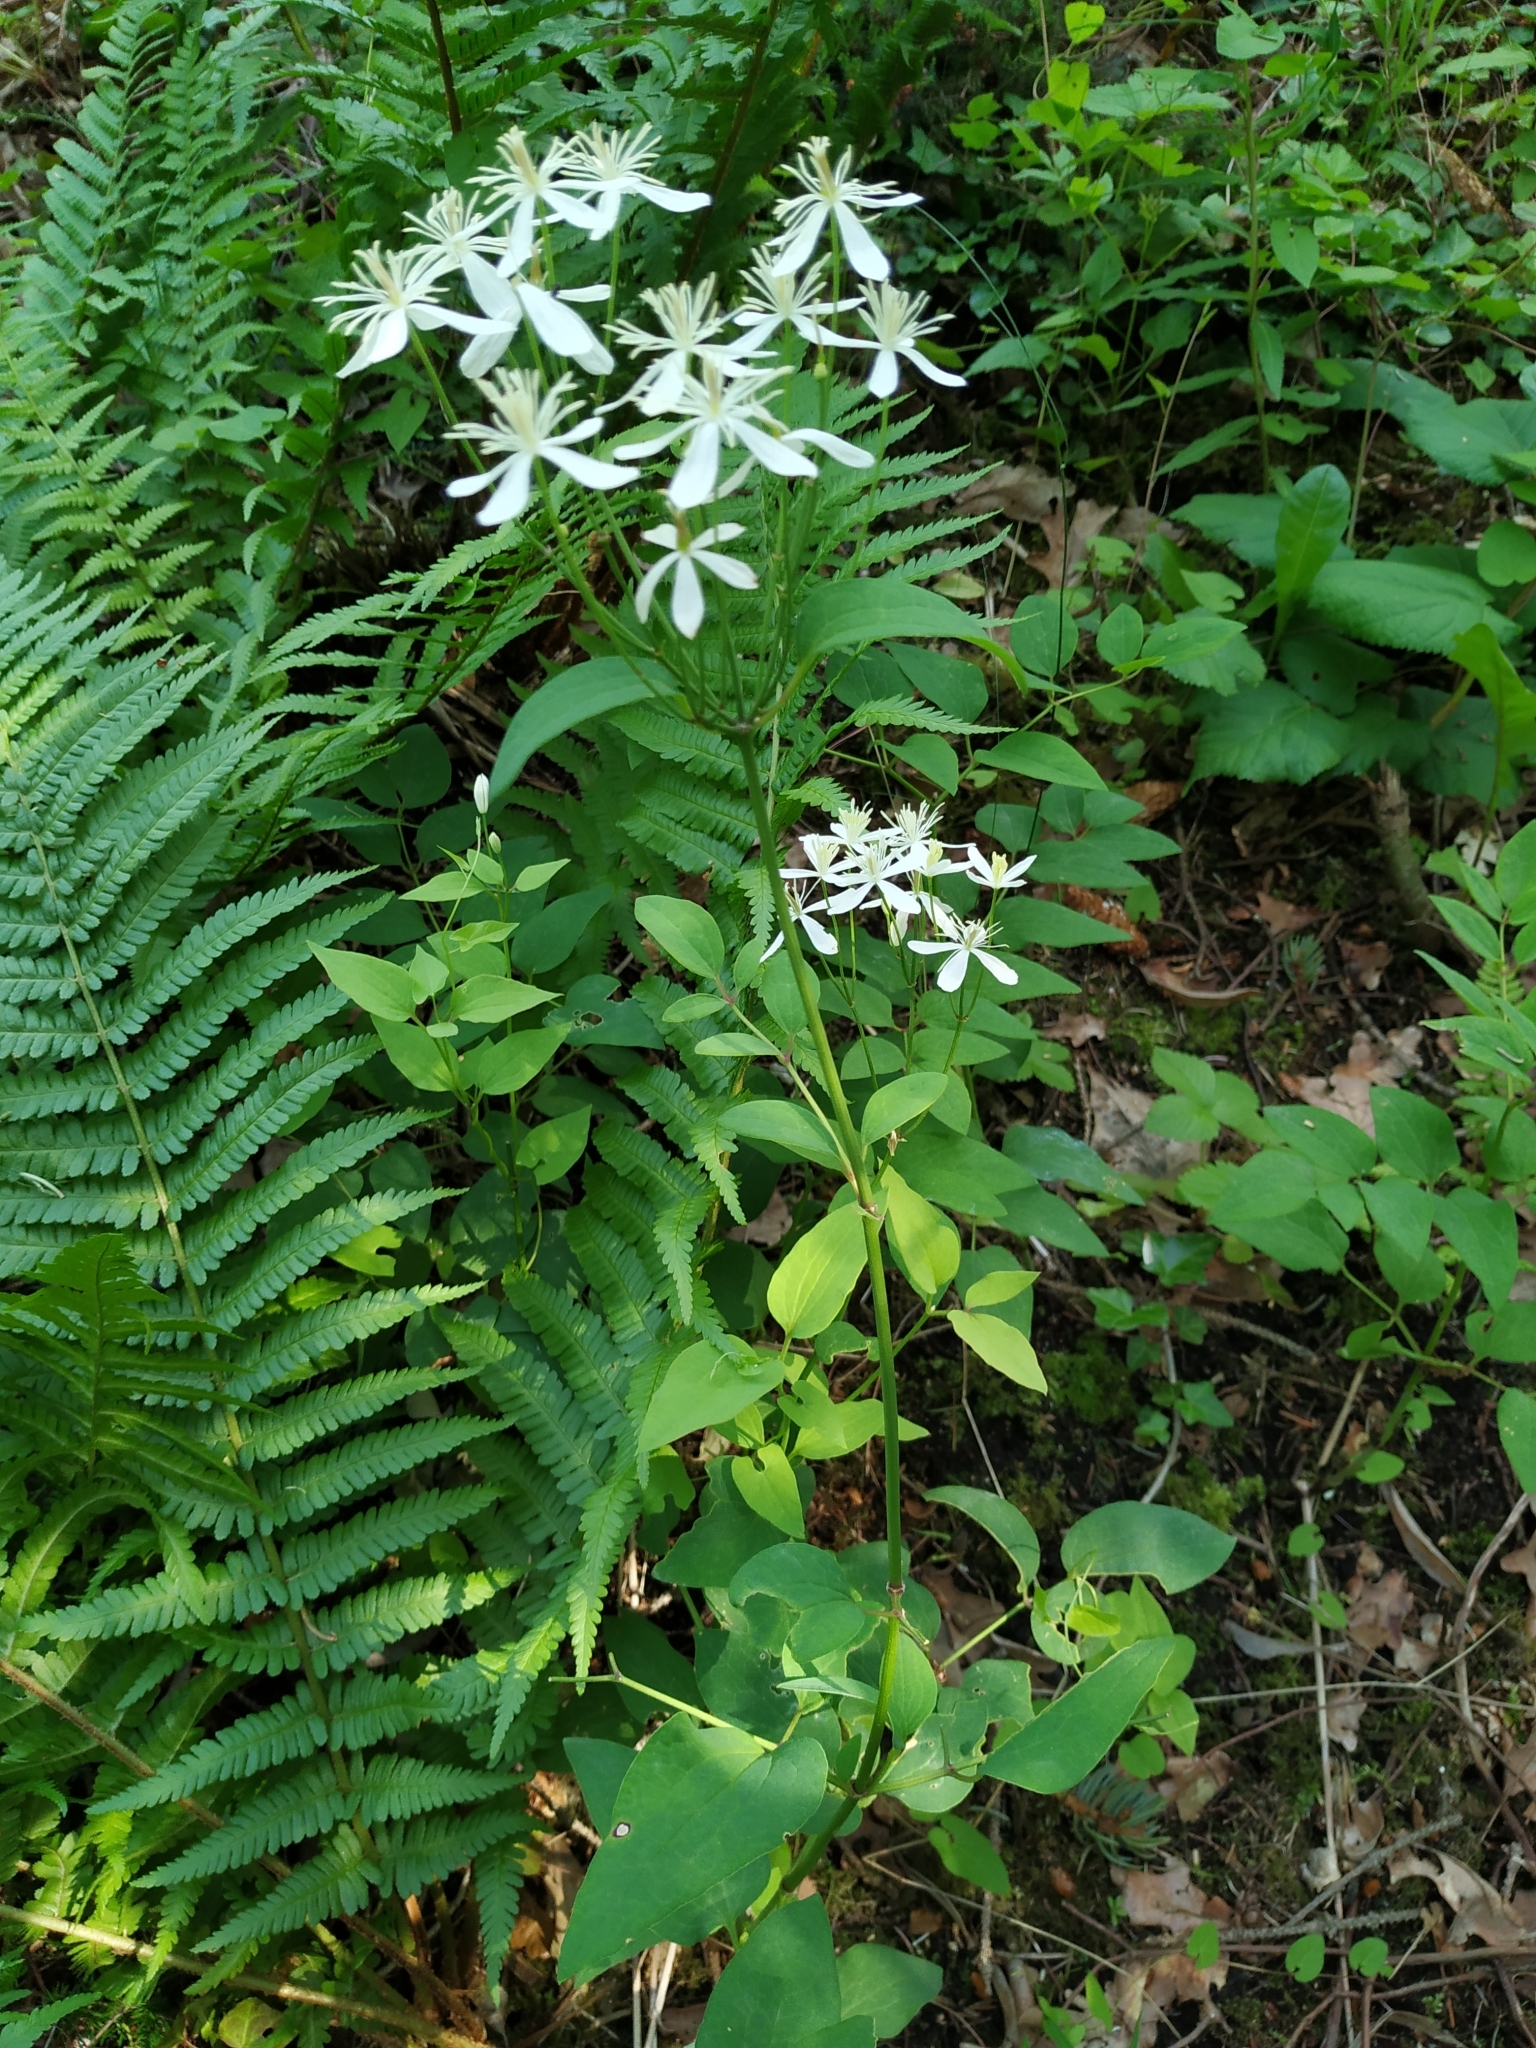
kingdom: Plantae
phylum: Tracheophyta
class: Magnoliopsida
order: Ranunculales
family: Ranunculaceae
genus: Clematis
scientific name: Clematis recta
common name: Ground clematis
